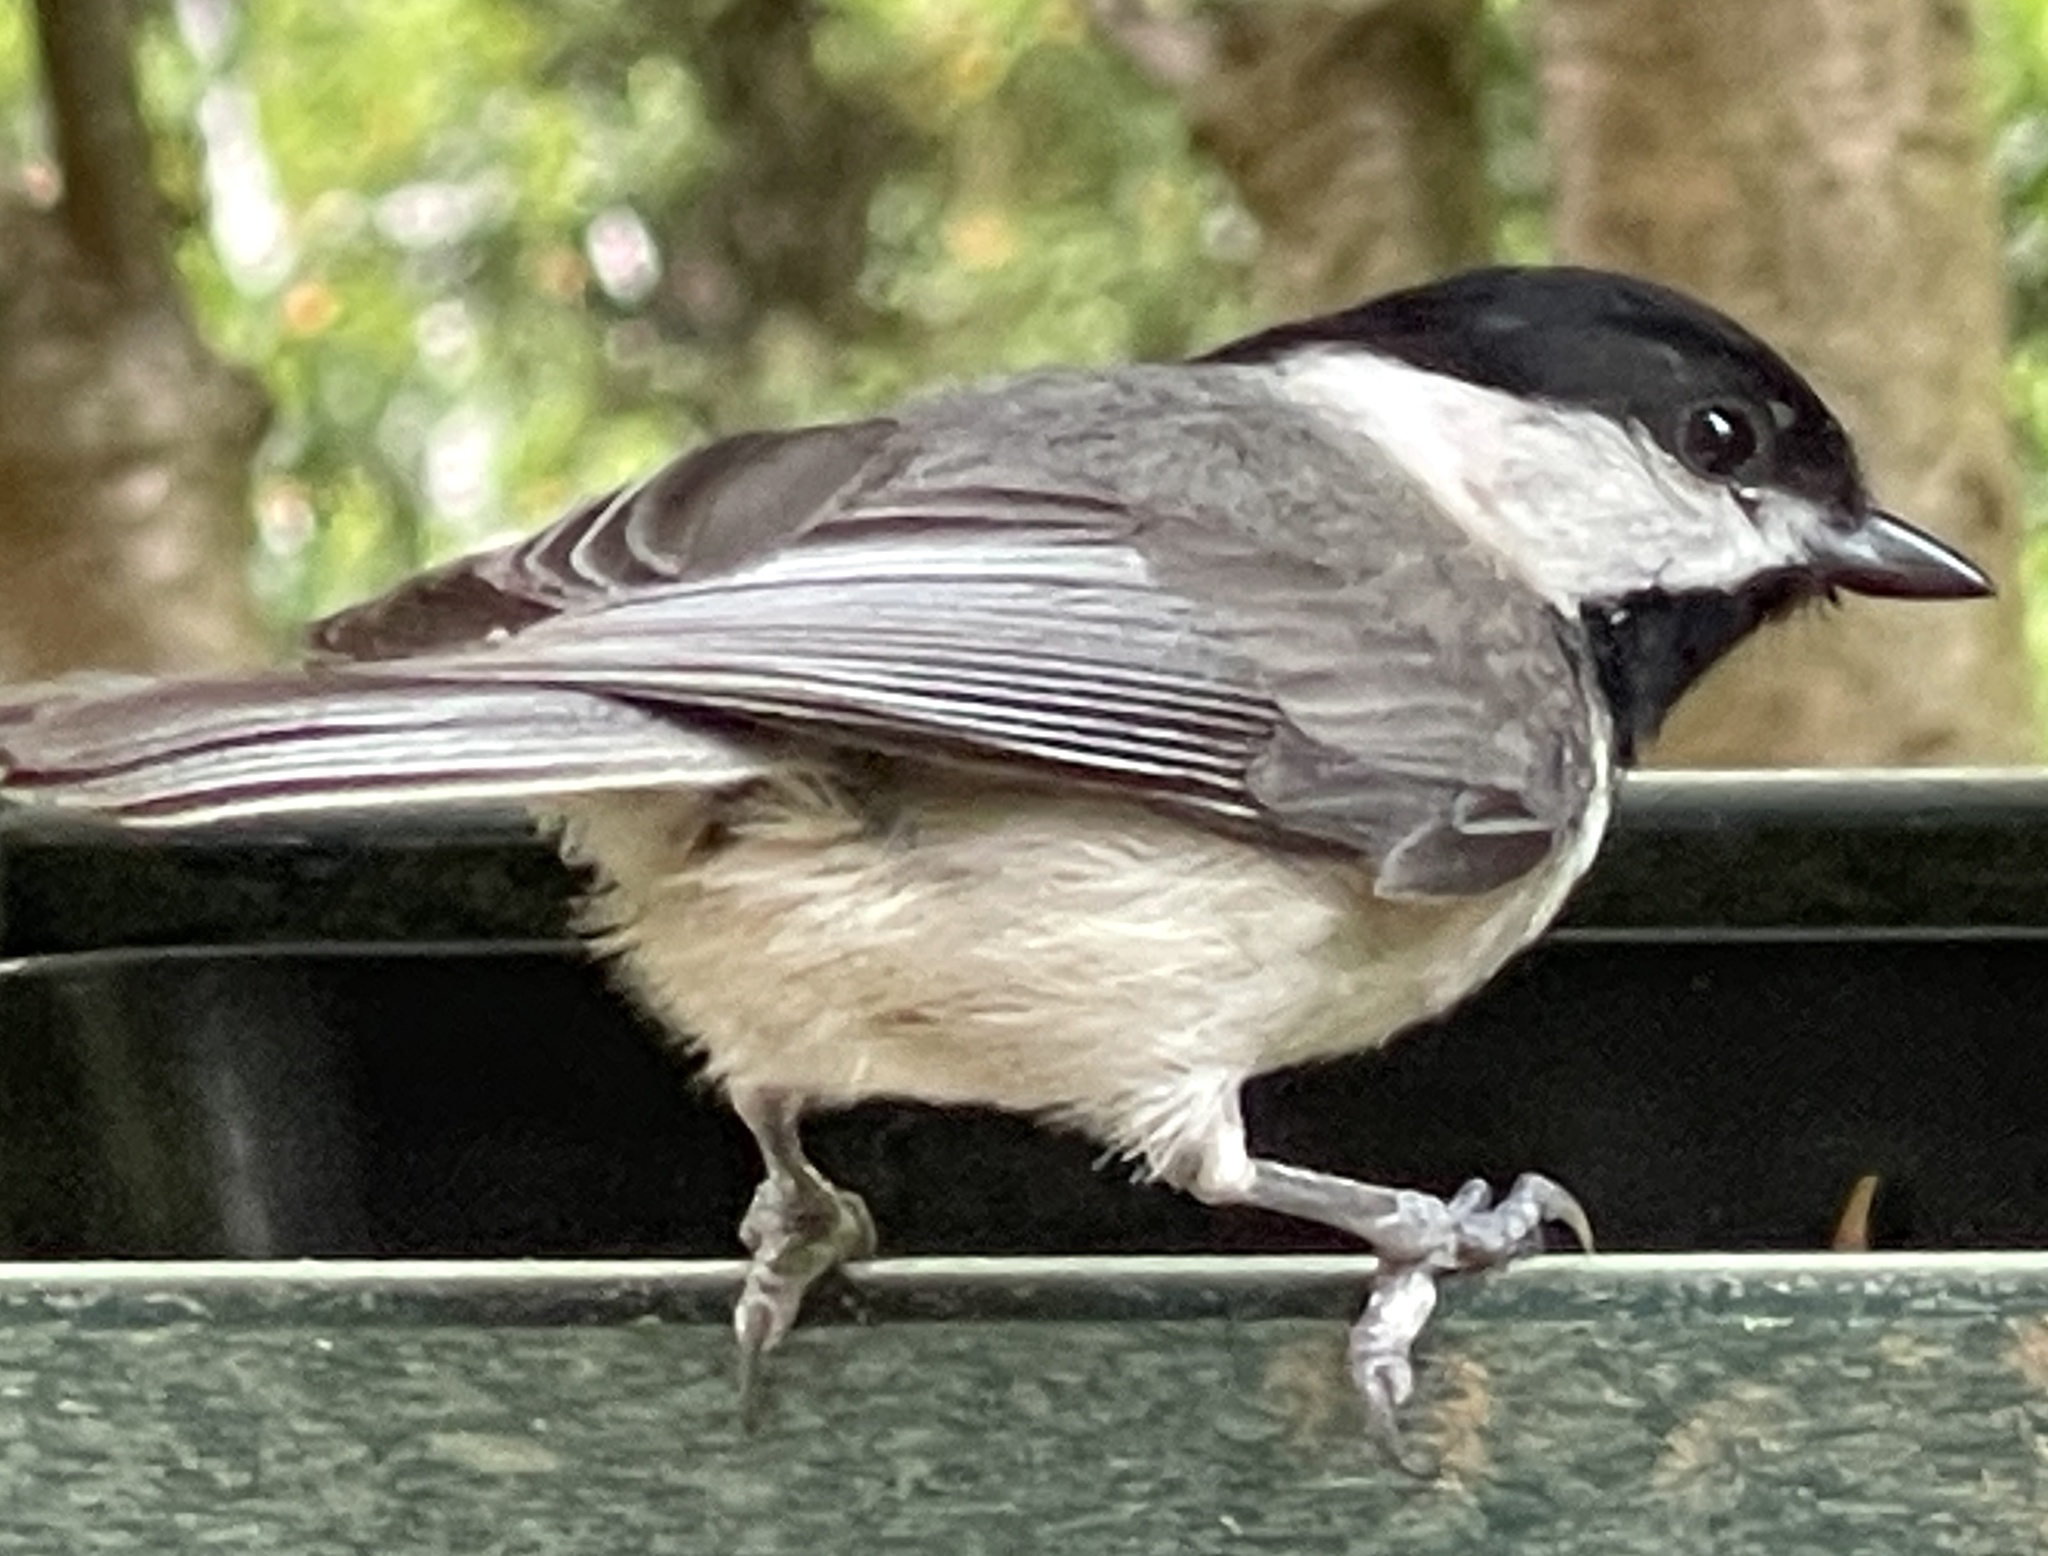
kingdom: Animalia
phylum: Chordata
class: Aves
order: Passeriformes
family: Paridae
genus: Poecile
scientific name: Poecile carolinensis
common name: Carolina chickadee
